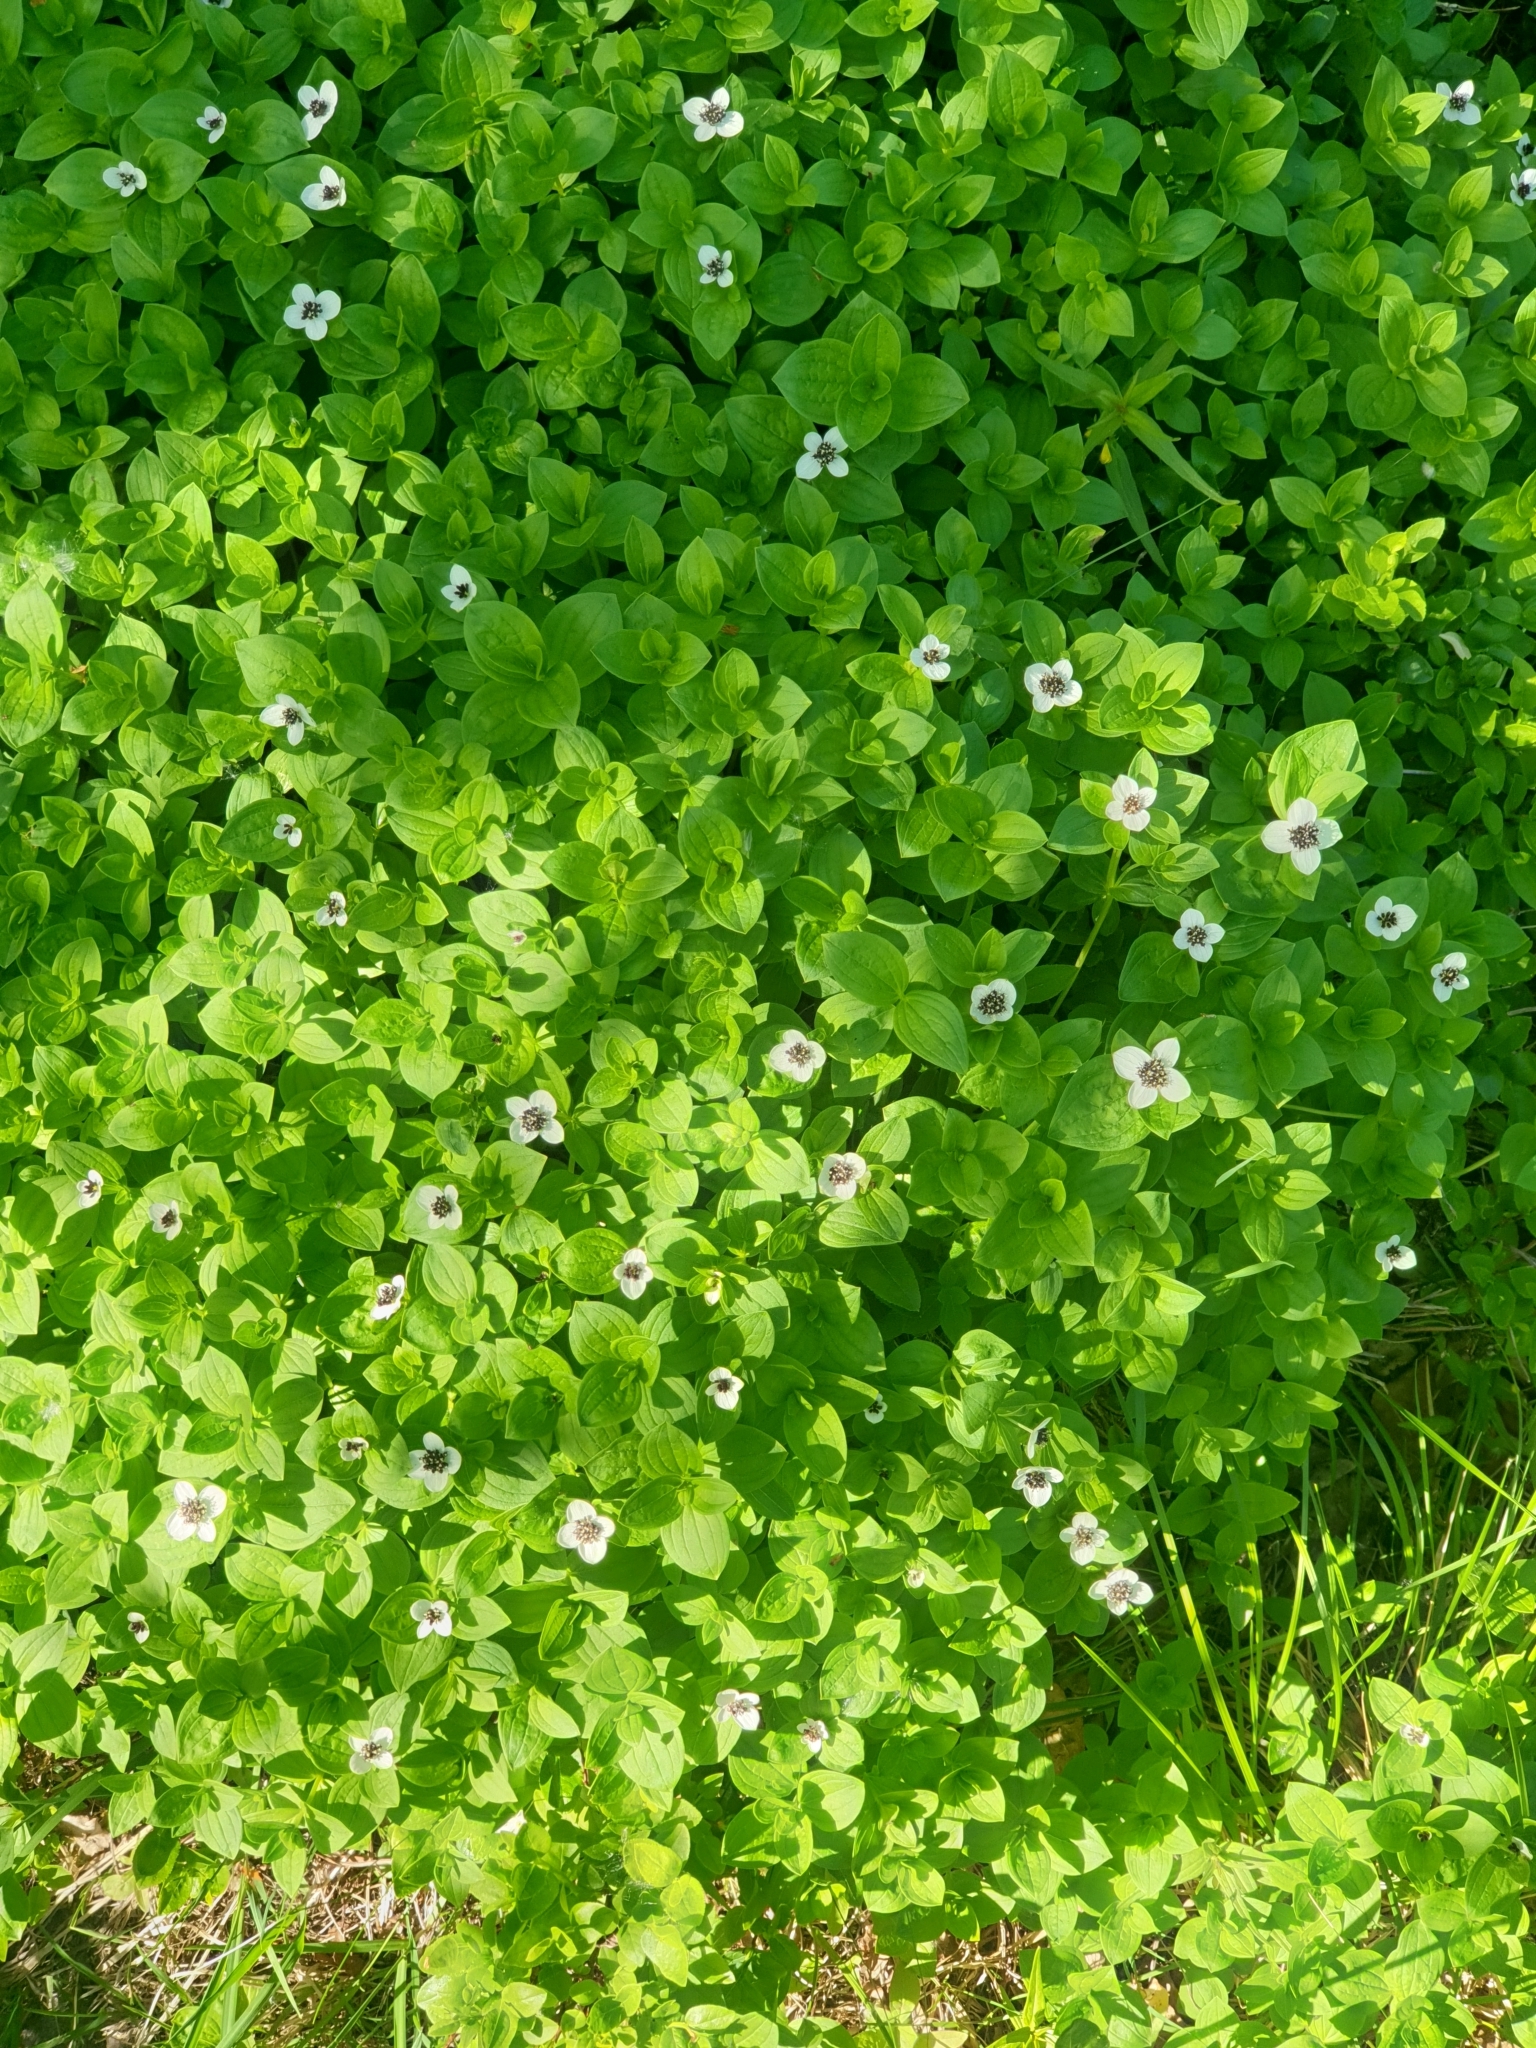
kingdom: Plantae
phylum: Tracheophyta
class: Magnoliopsida
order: Cornales
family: Cornaceae
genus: Cornus
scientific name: Cornus suecica
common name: Dwarf cornel
